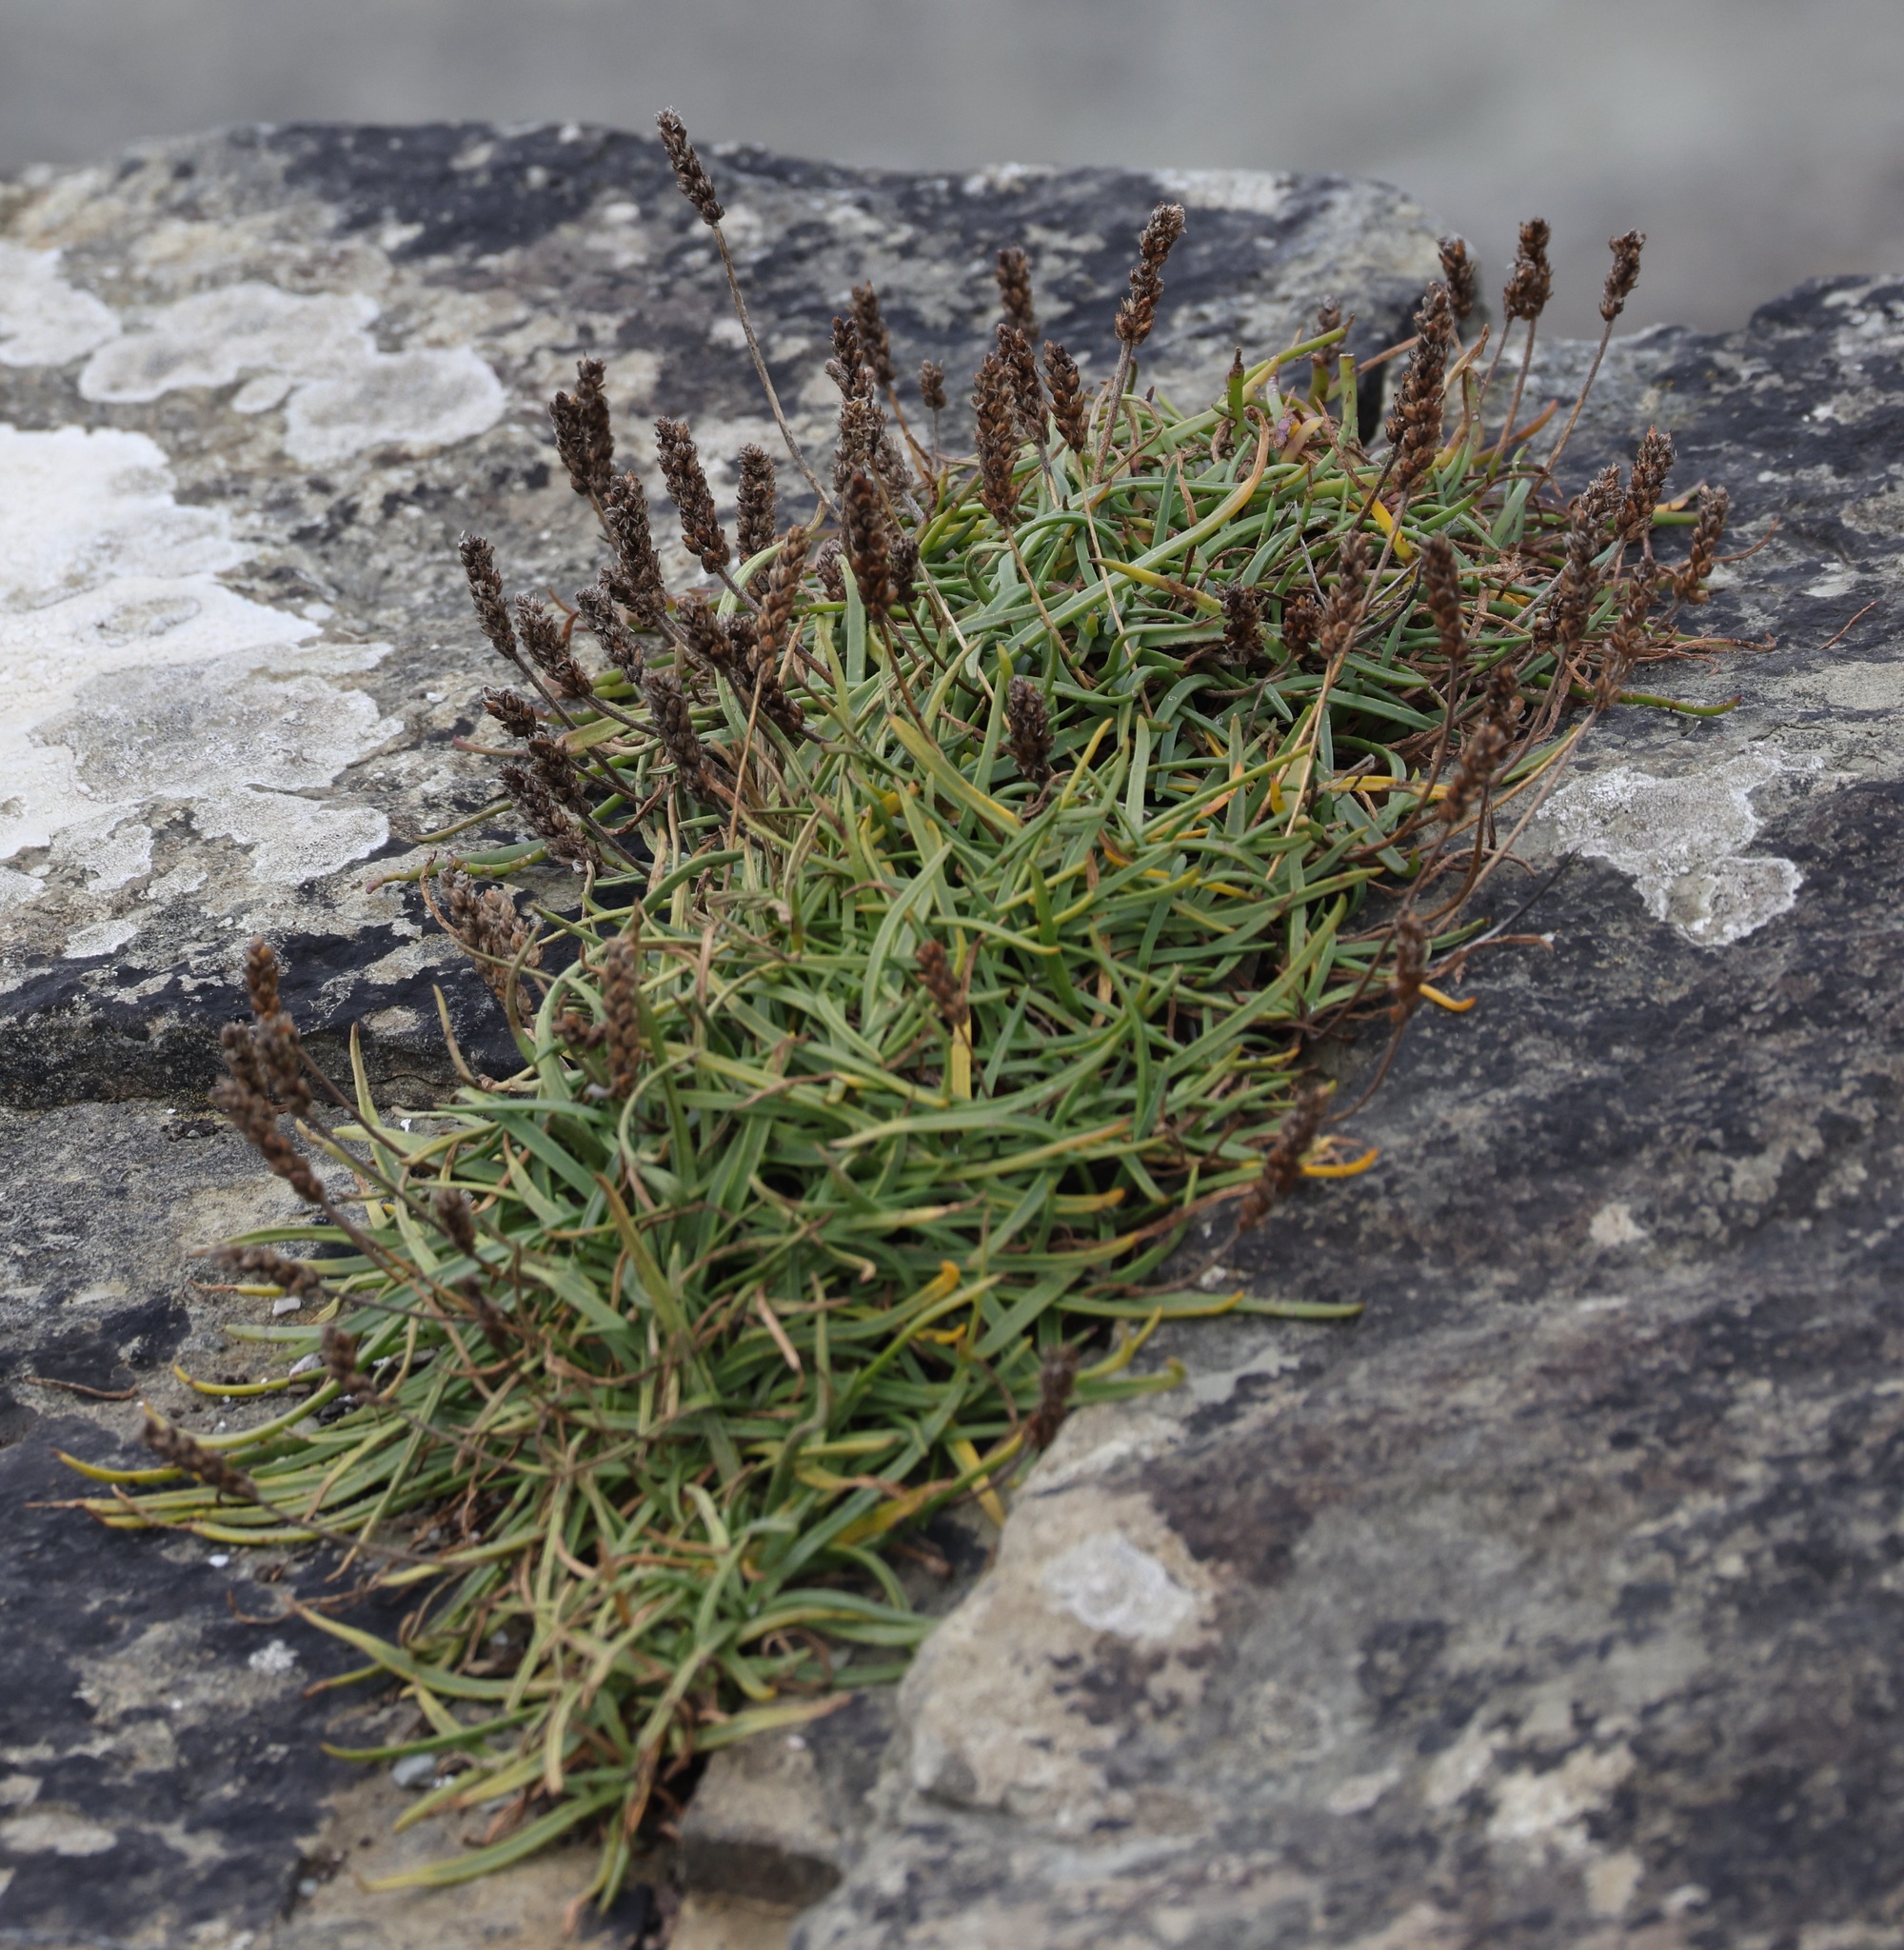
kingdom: Plantae
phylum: Tracheophyta
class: Magnoliopsida
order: Lamiales
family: Plantaginaceae
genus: Plantago
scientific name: Plantago maritima
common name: Sea plantain
